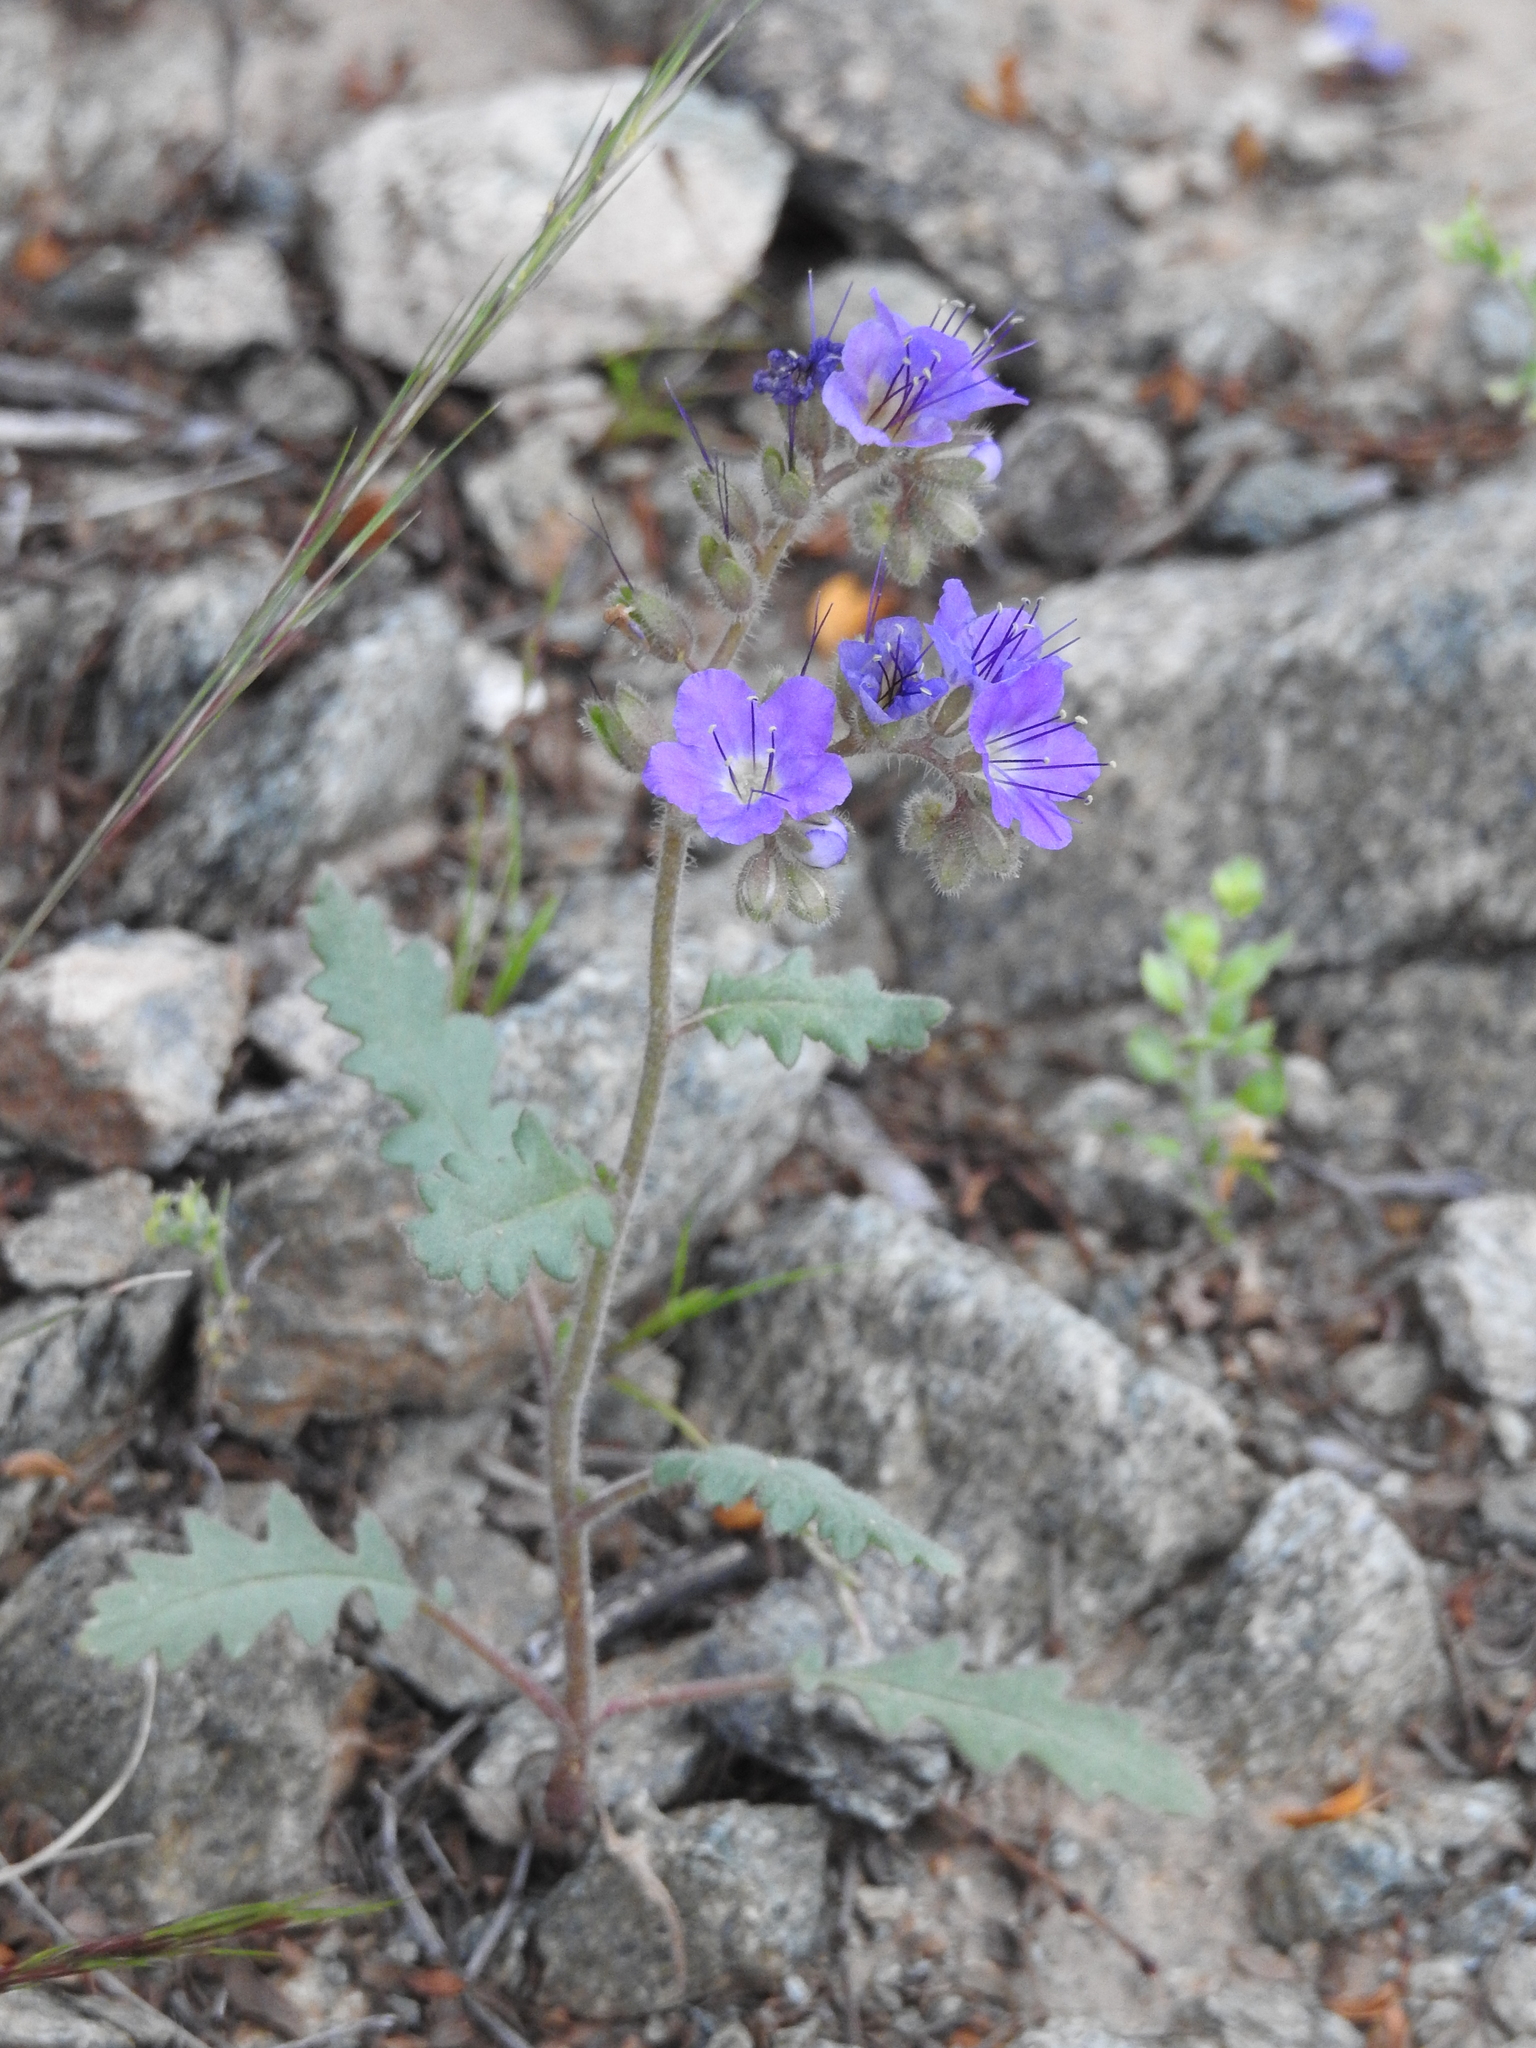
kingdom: Plantae
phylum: Tracheophyta
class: Magnoliopsida
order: Boraginales
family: Hydrophyllaceae
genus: Phacelia
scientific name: Phacelia crenulata
